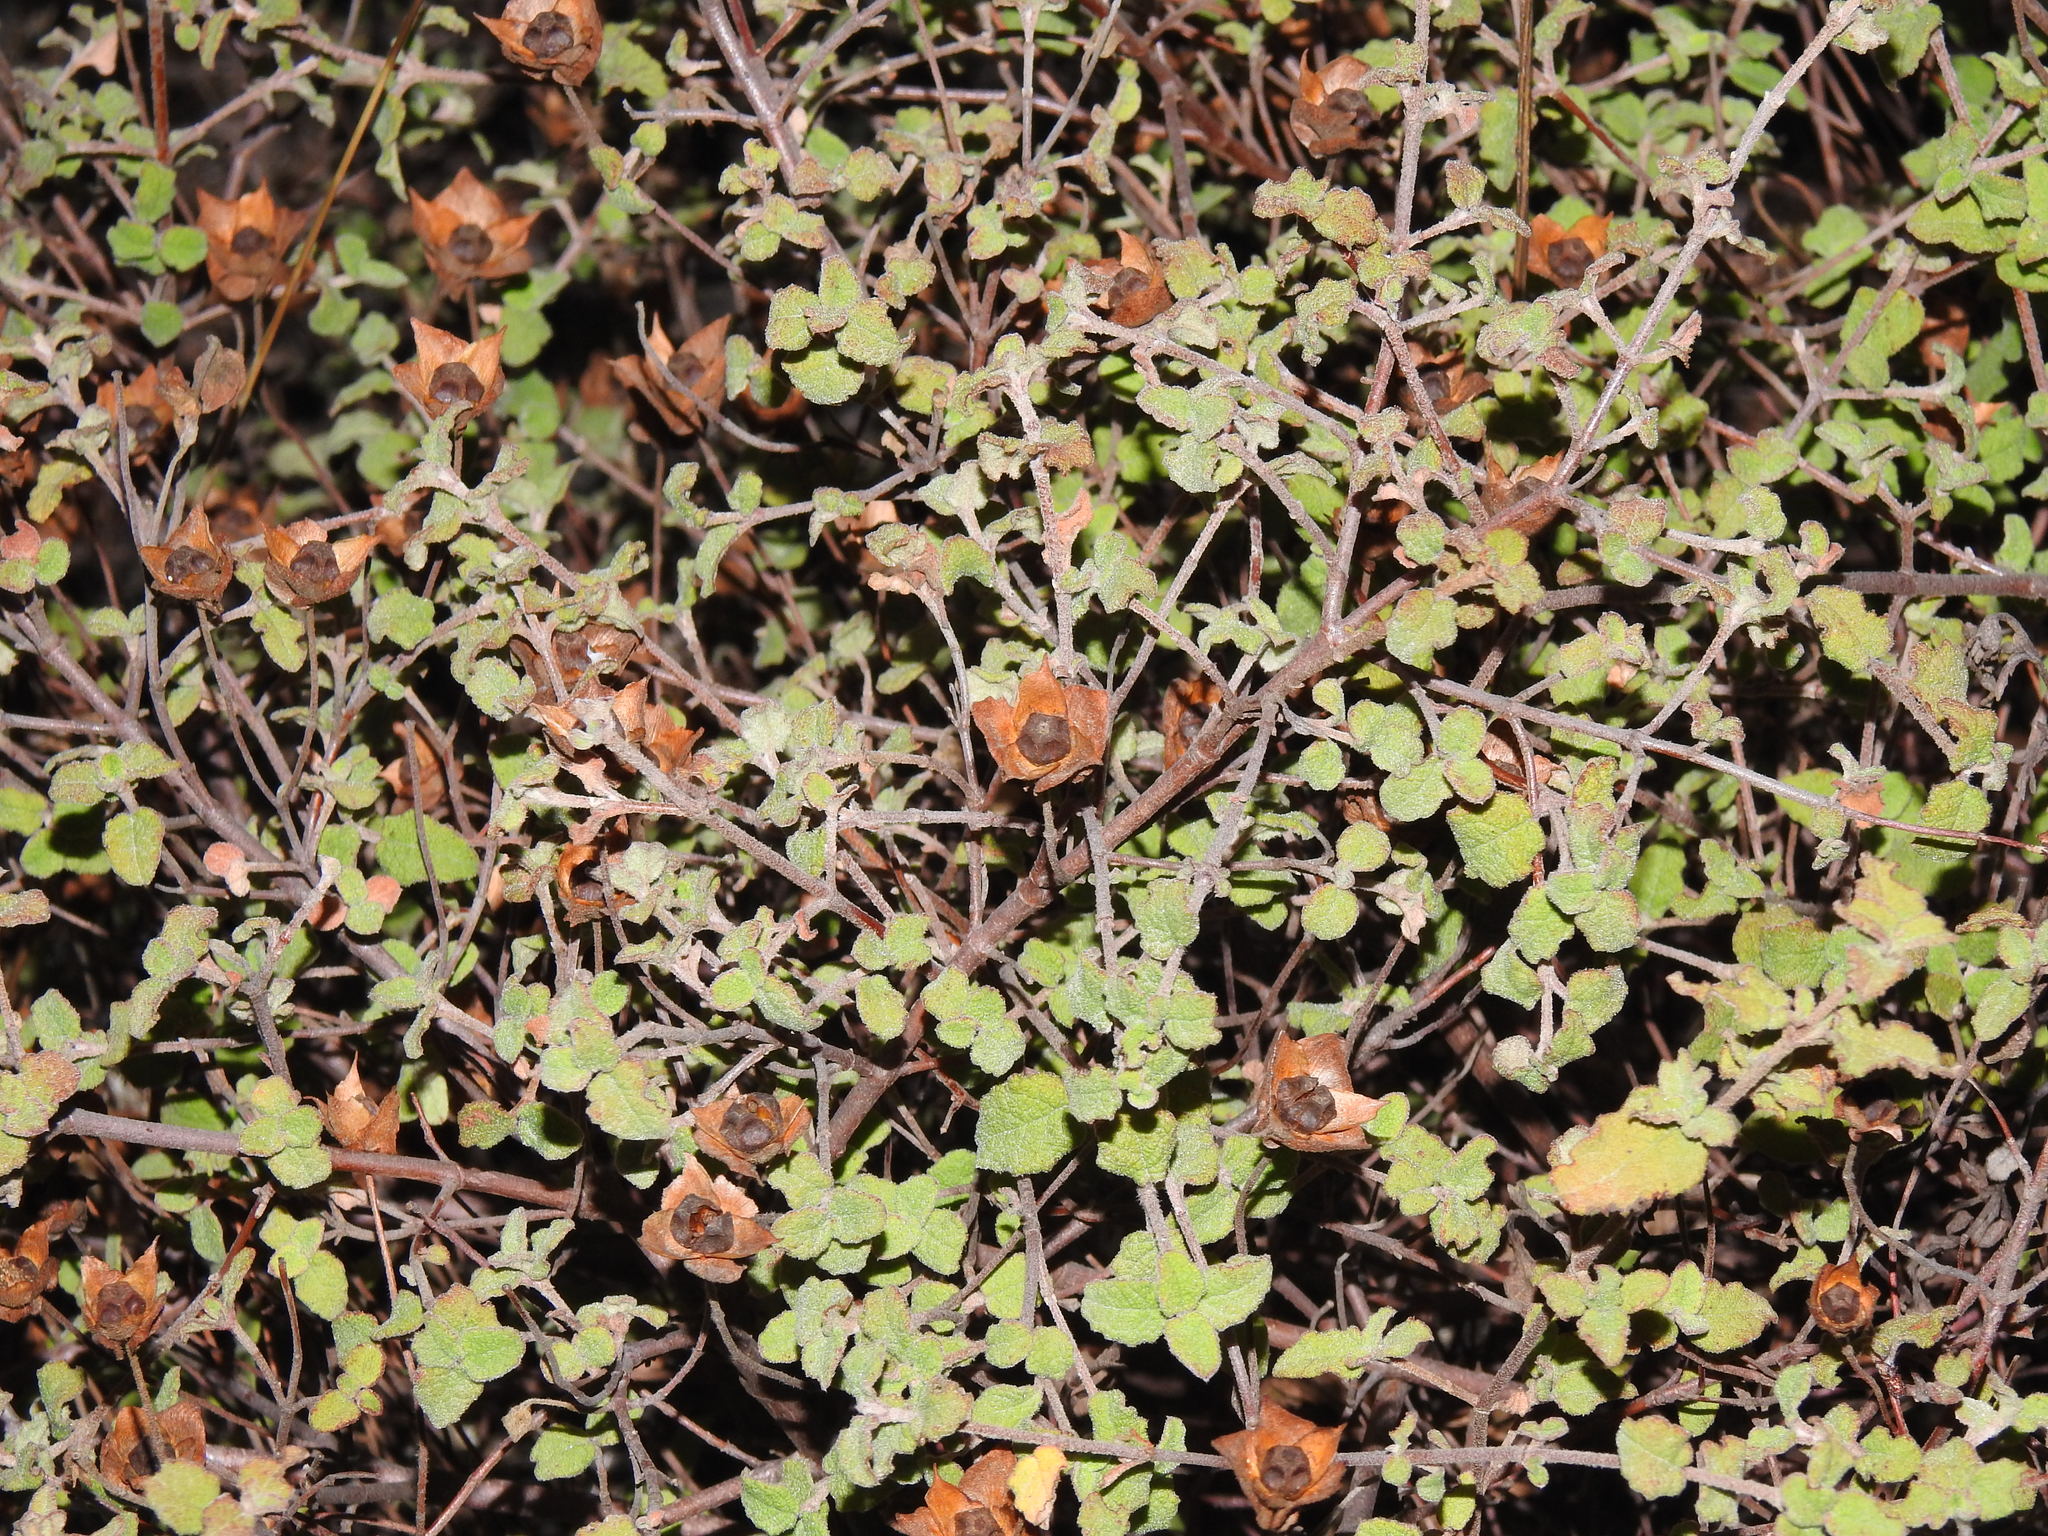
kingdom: Plantae
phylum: Tracheophyta
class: Magnoliopsida
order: Malvales
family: Cistaceae
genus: Cistus
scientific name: Cistus salviifolius
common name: Salvia cistus
